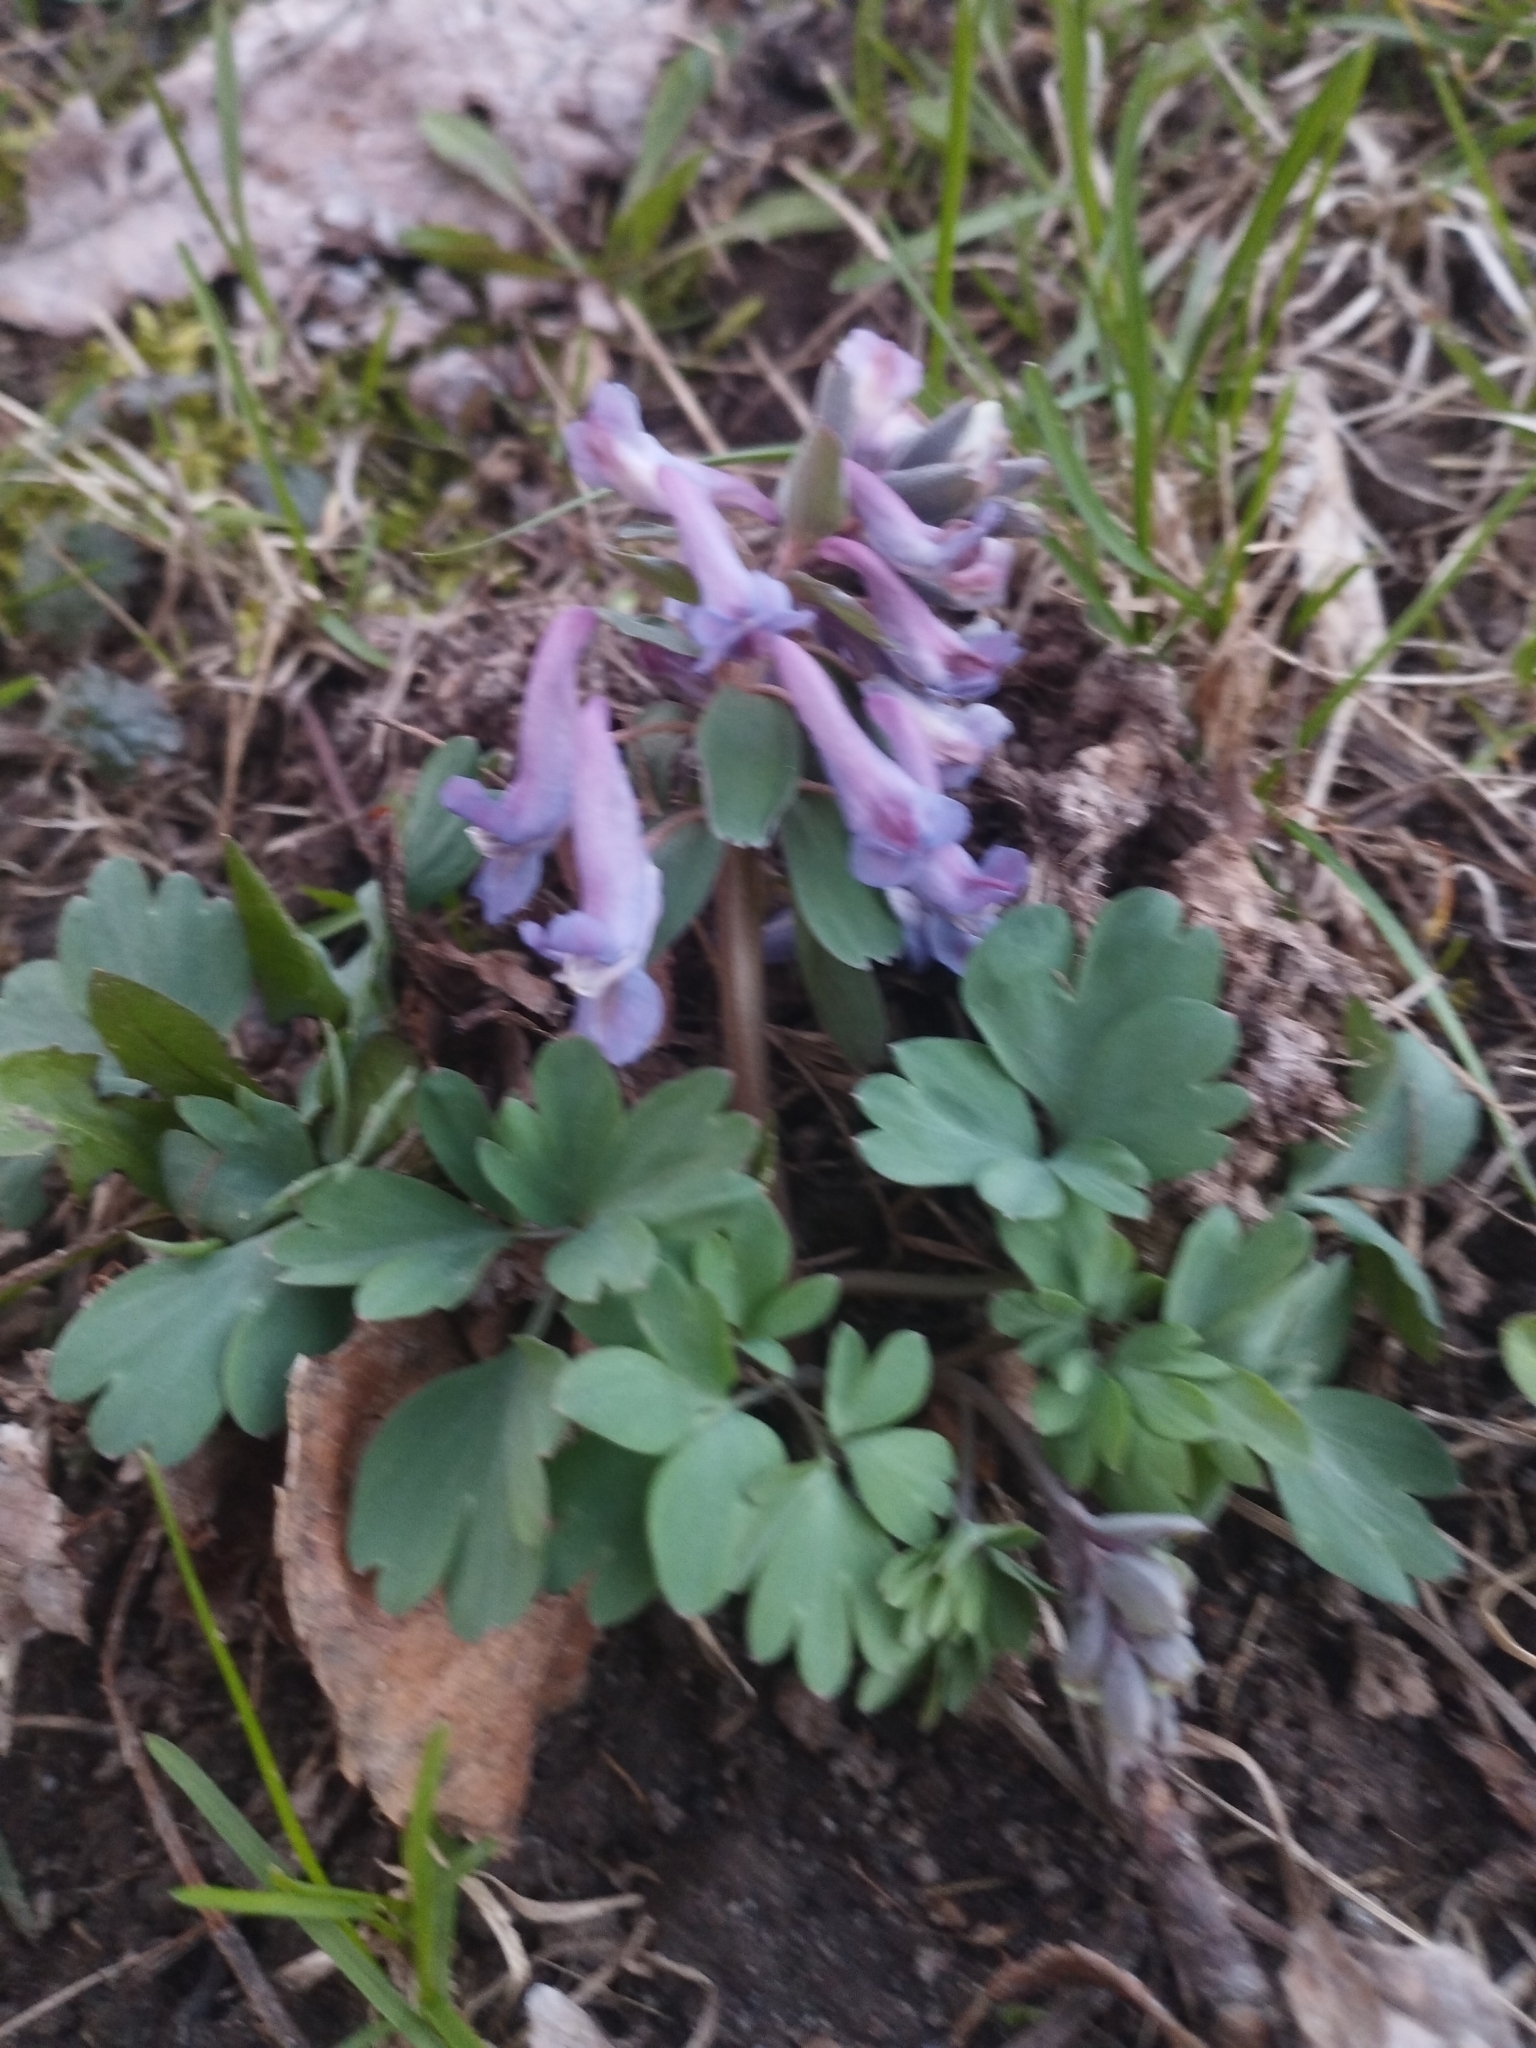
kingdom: Plantae
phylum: Tracheophyta
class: Magnoliopsida
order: Ranunculales
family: Papaveraceae
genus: Corydalis
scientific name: Corydalis solida
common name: Bird-in-a-bush
